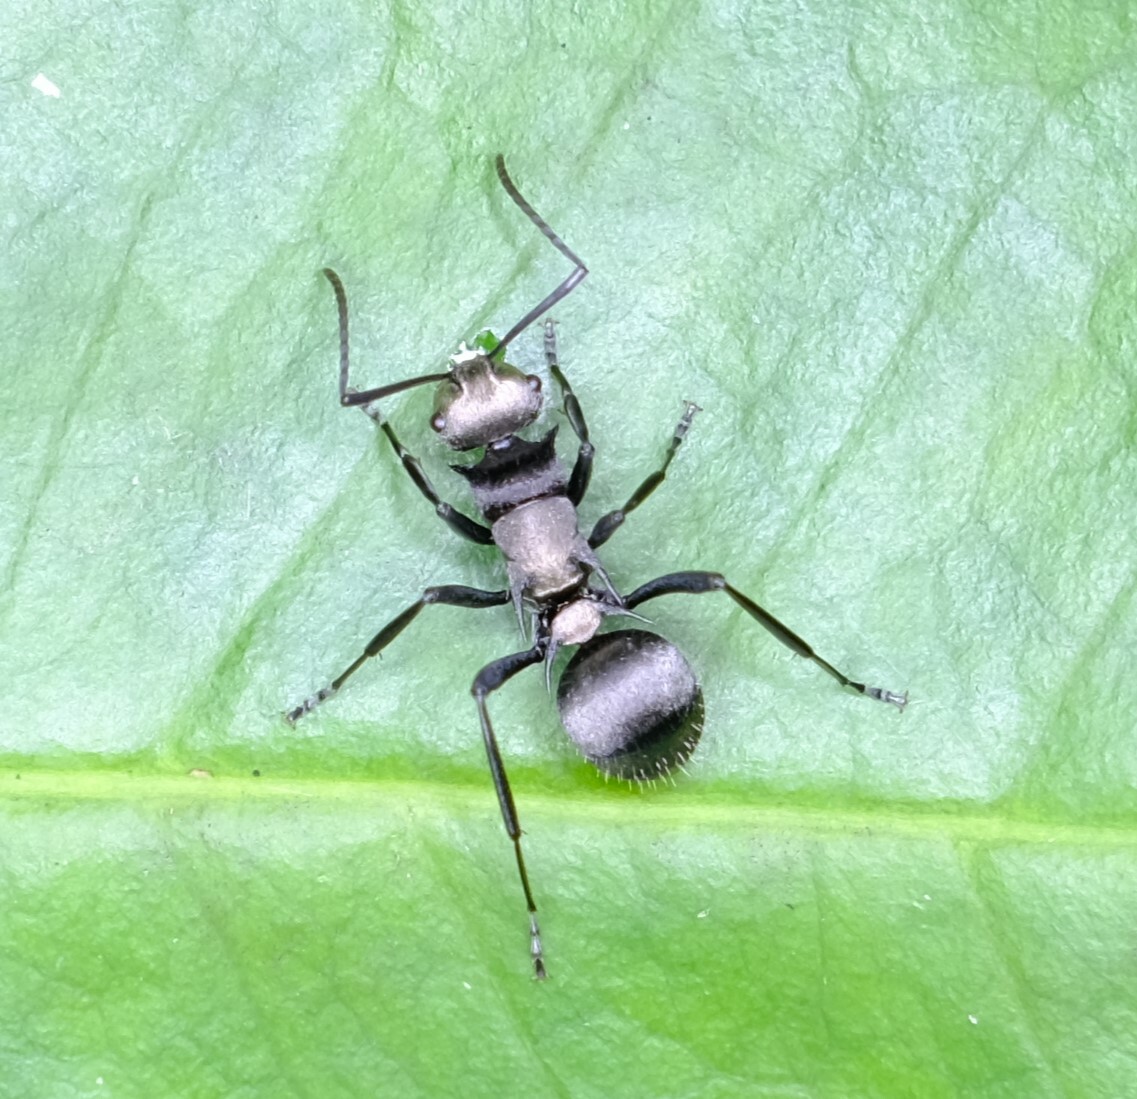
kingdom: Animalia
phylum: Arthropoda
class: Insecta
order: Hymenoptera
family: Formicidae
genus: Polyrhachis
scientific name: Polyrhachis daemeli
